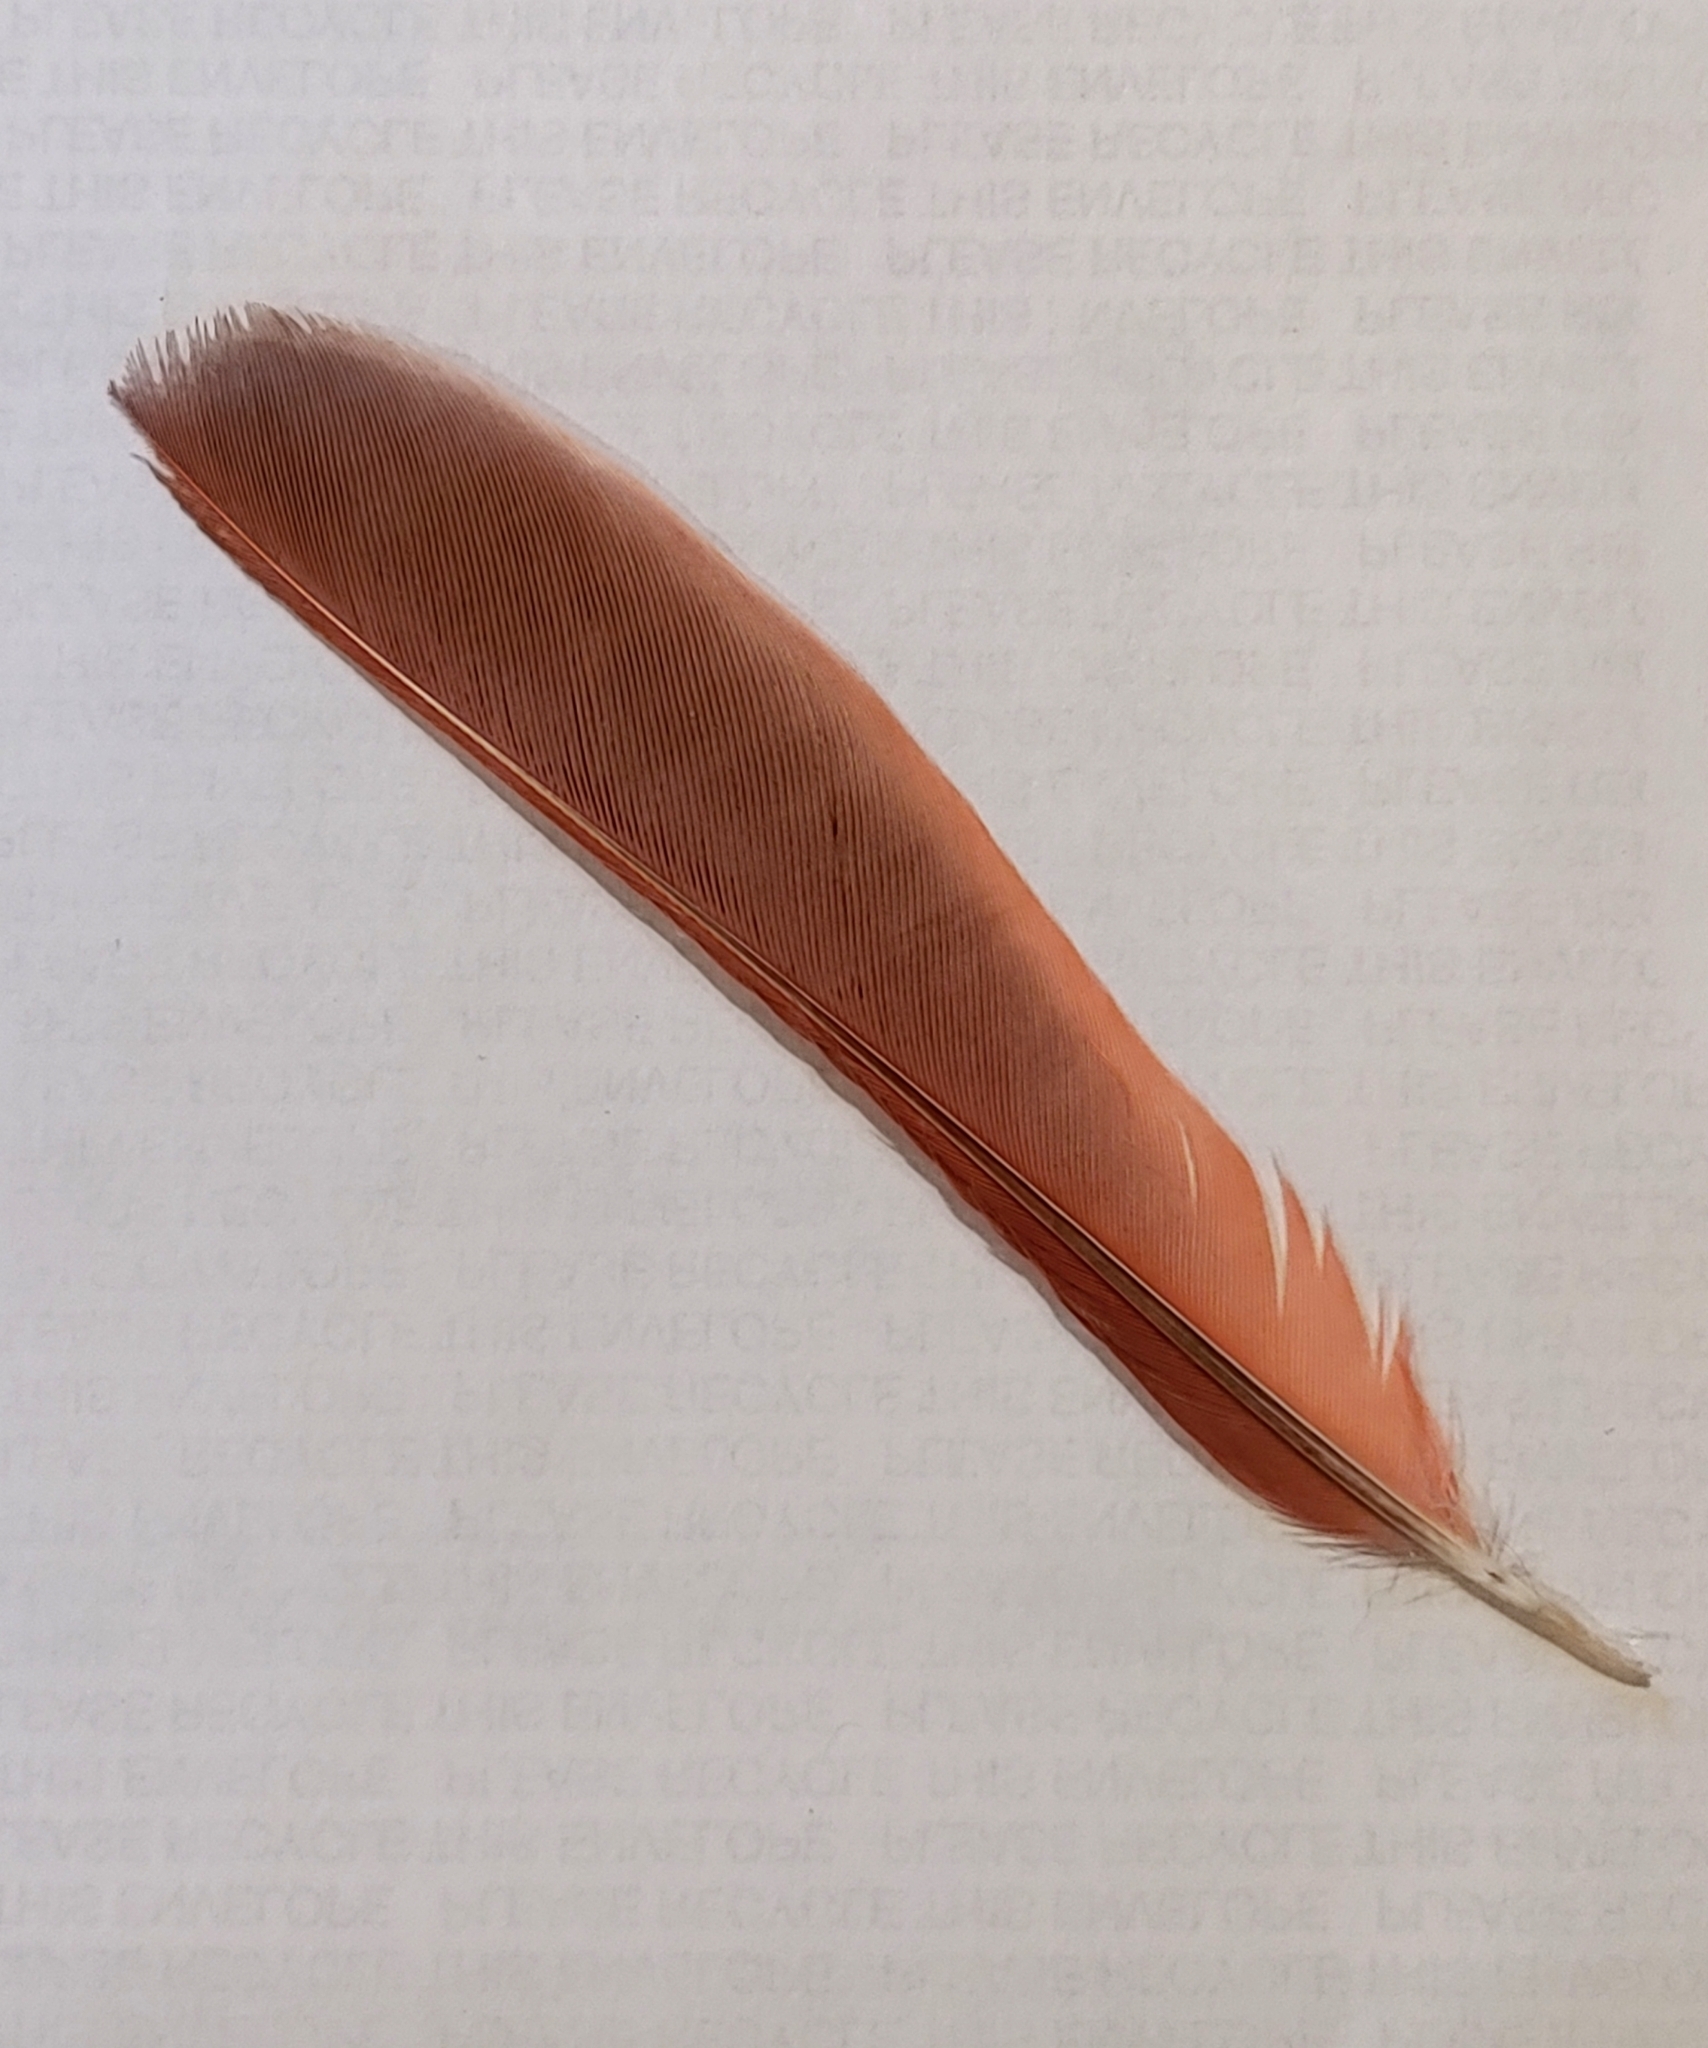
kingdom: Animalia
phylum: Chordata
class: Aves
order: Passeriformes
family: Cardinalidae
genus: Cardinalis
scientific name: Cardinalis cardinalis
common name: Northern cardinal
